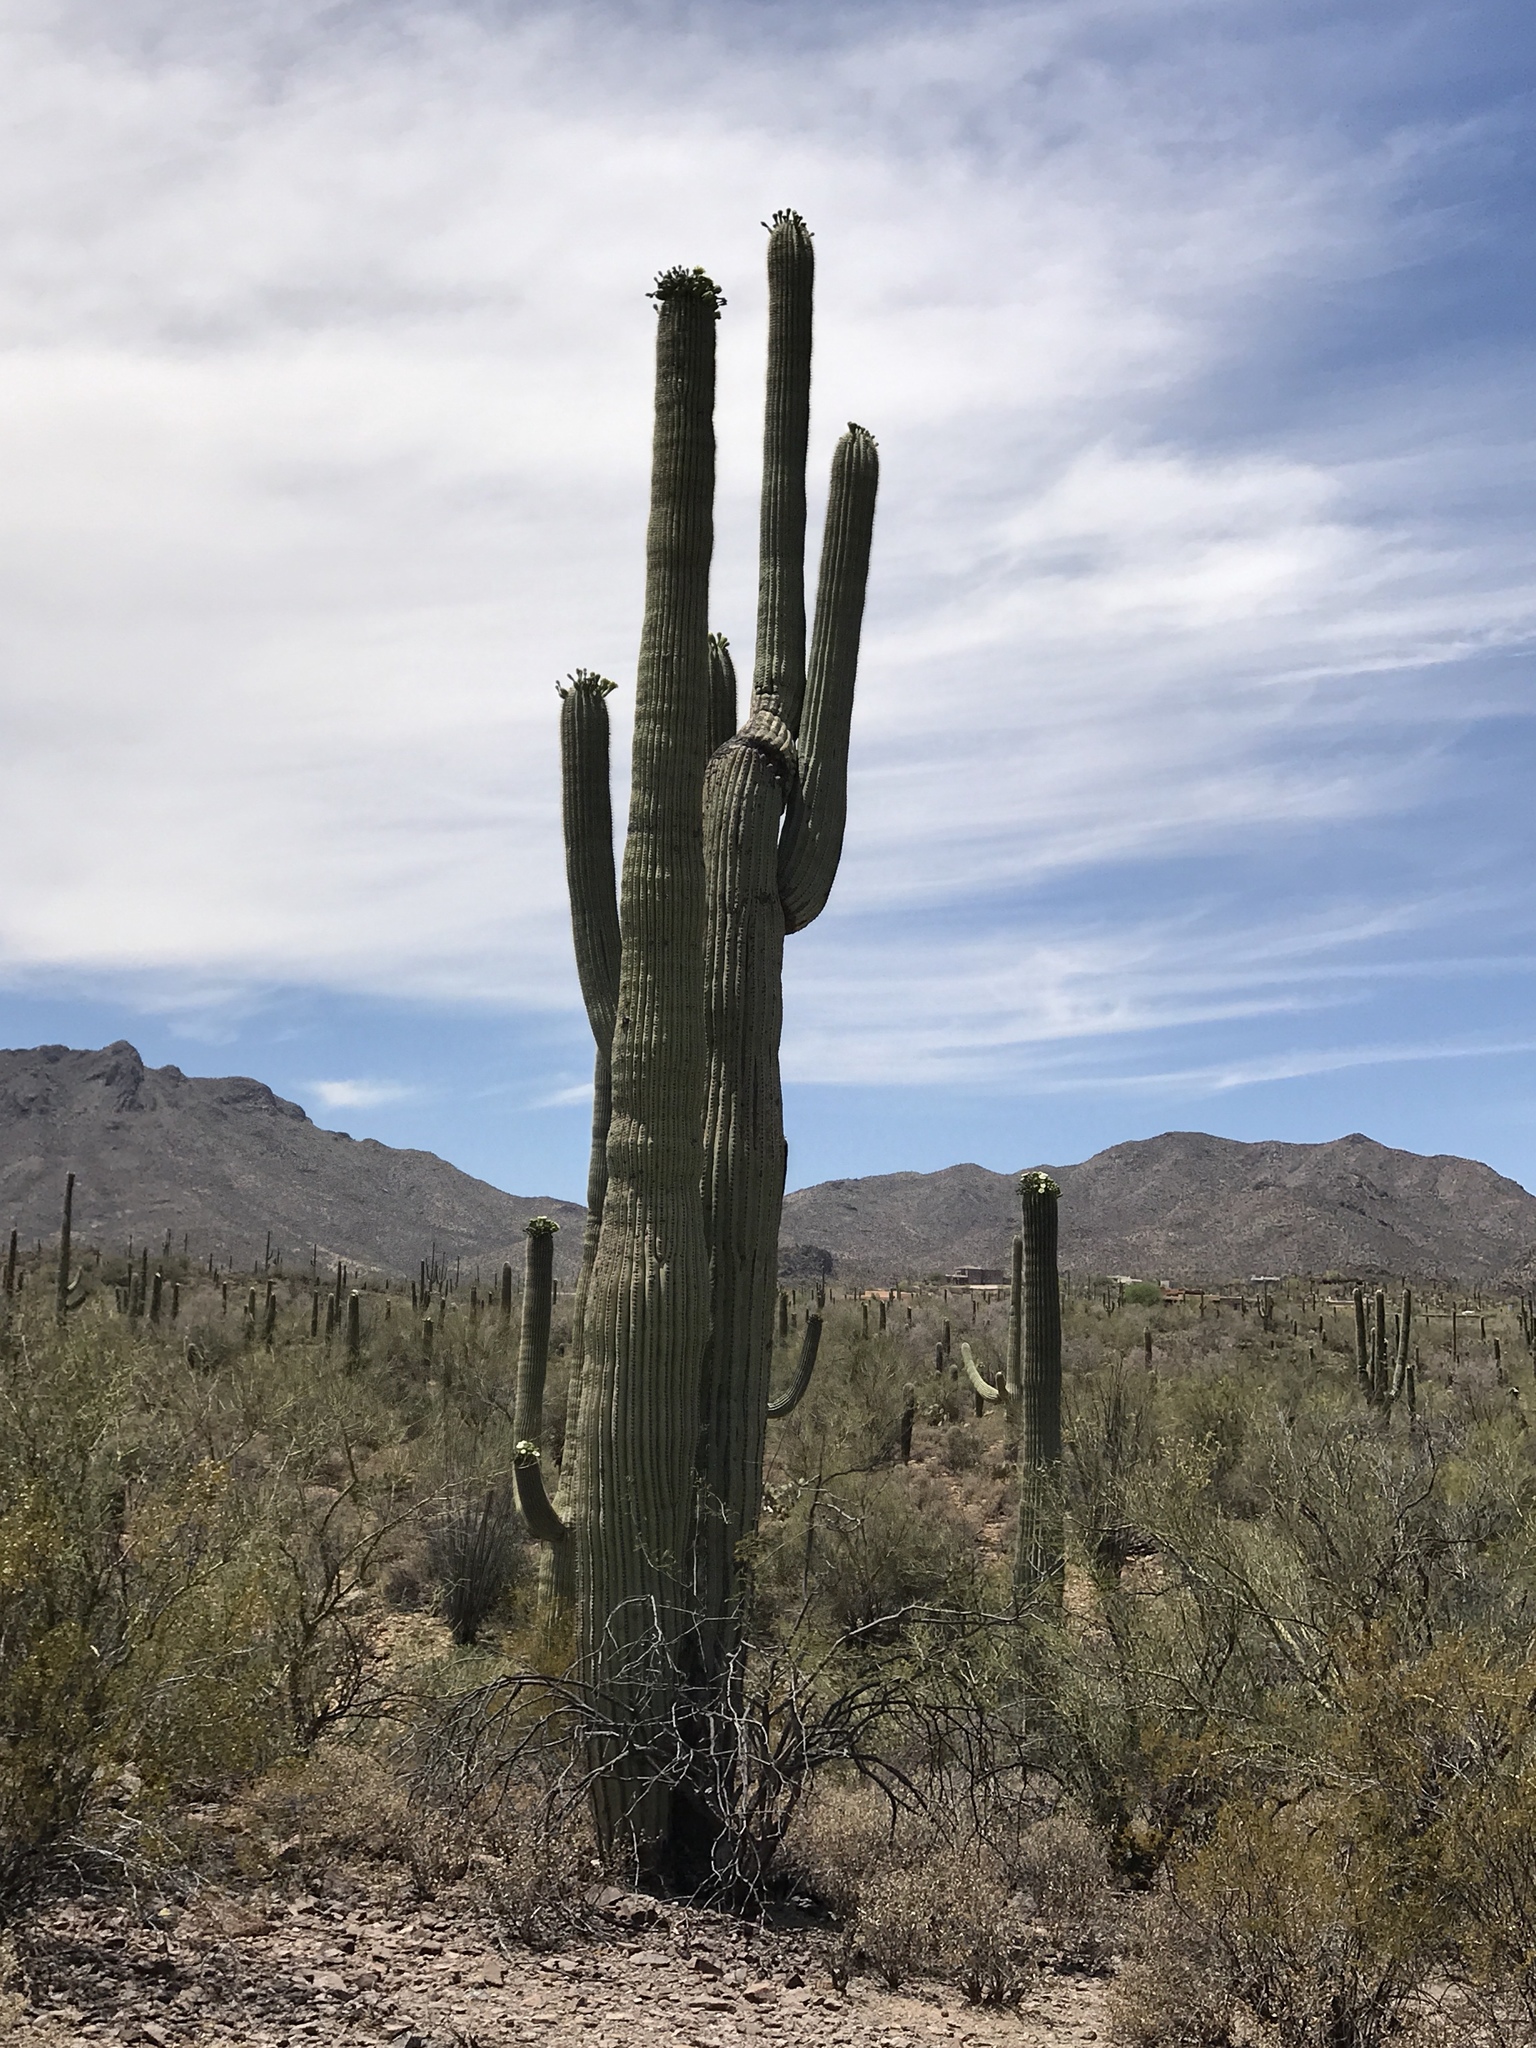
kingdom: Plantae
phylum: Tracheophyta
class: Magnoliopsida
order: Caryophyllales
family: Cactaceae
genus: Carnegiea
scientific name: Carnegiea gigantea
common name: Saguaro
